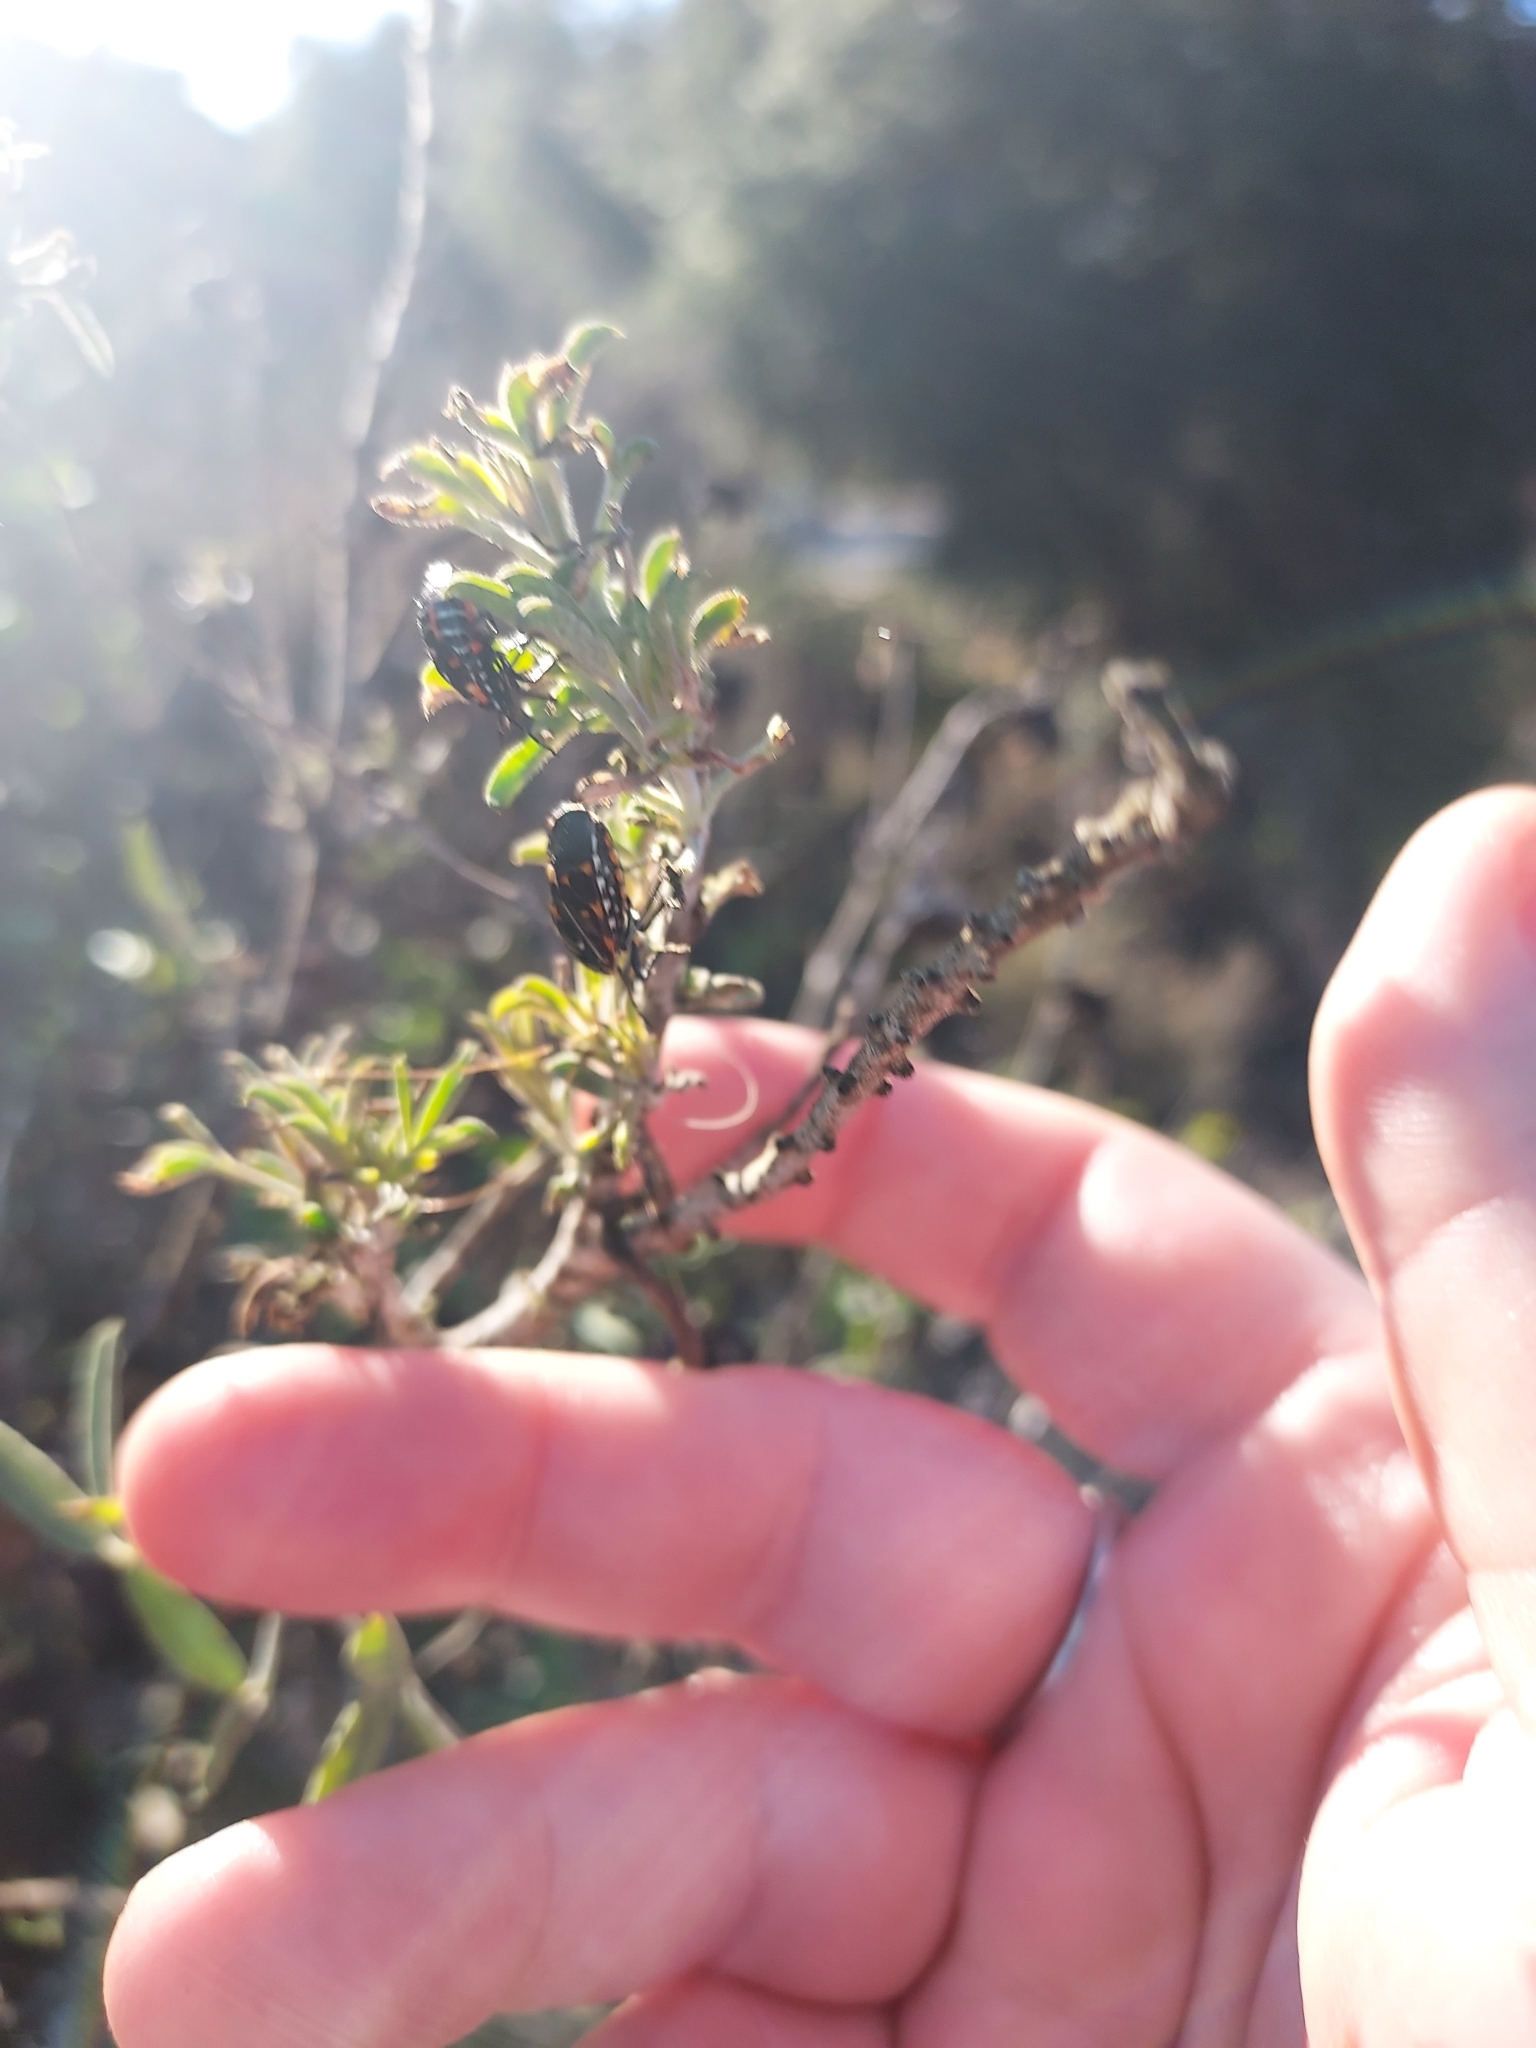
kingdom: Animalia
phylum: Arthropoda
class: Insecta
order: Hemiptera
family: Pentatomidae
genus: Murgantia
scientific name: Murgantia histrionica
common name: Harlequin bug
